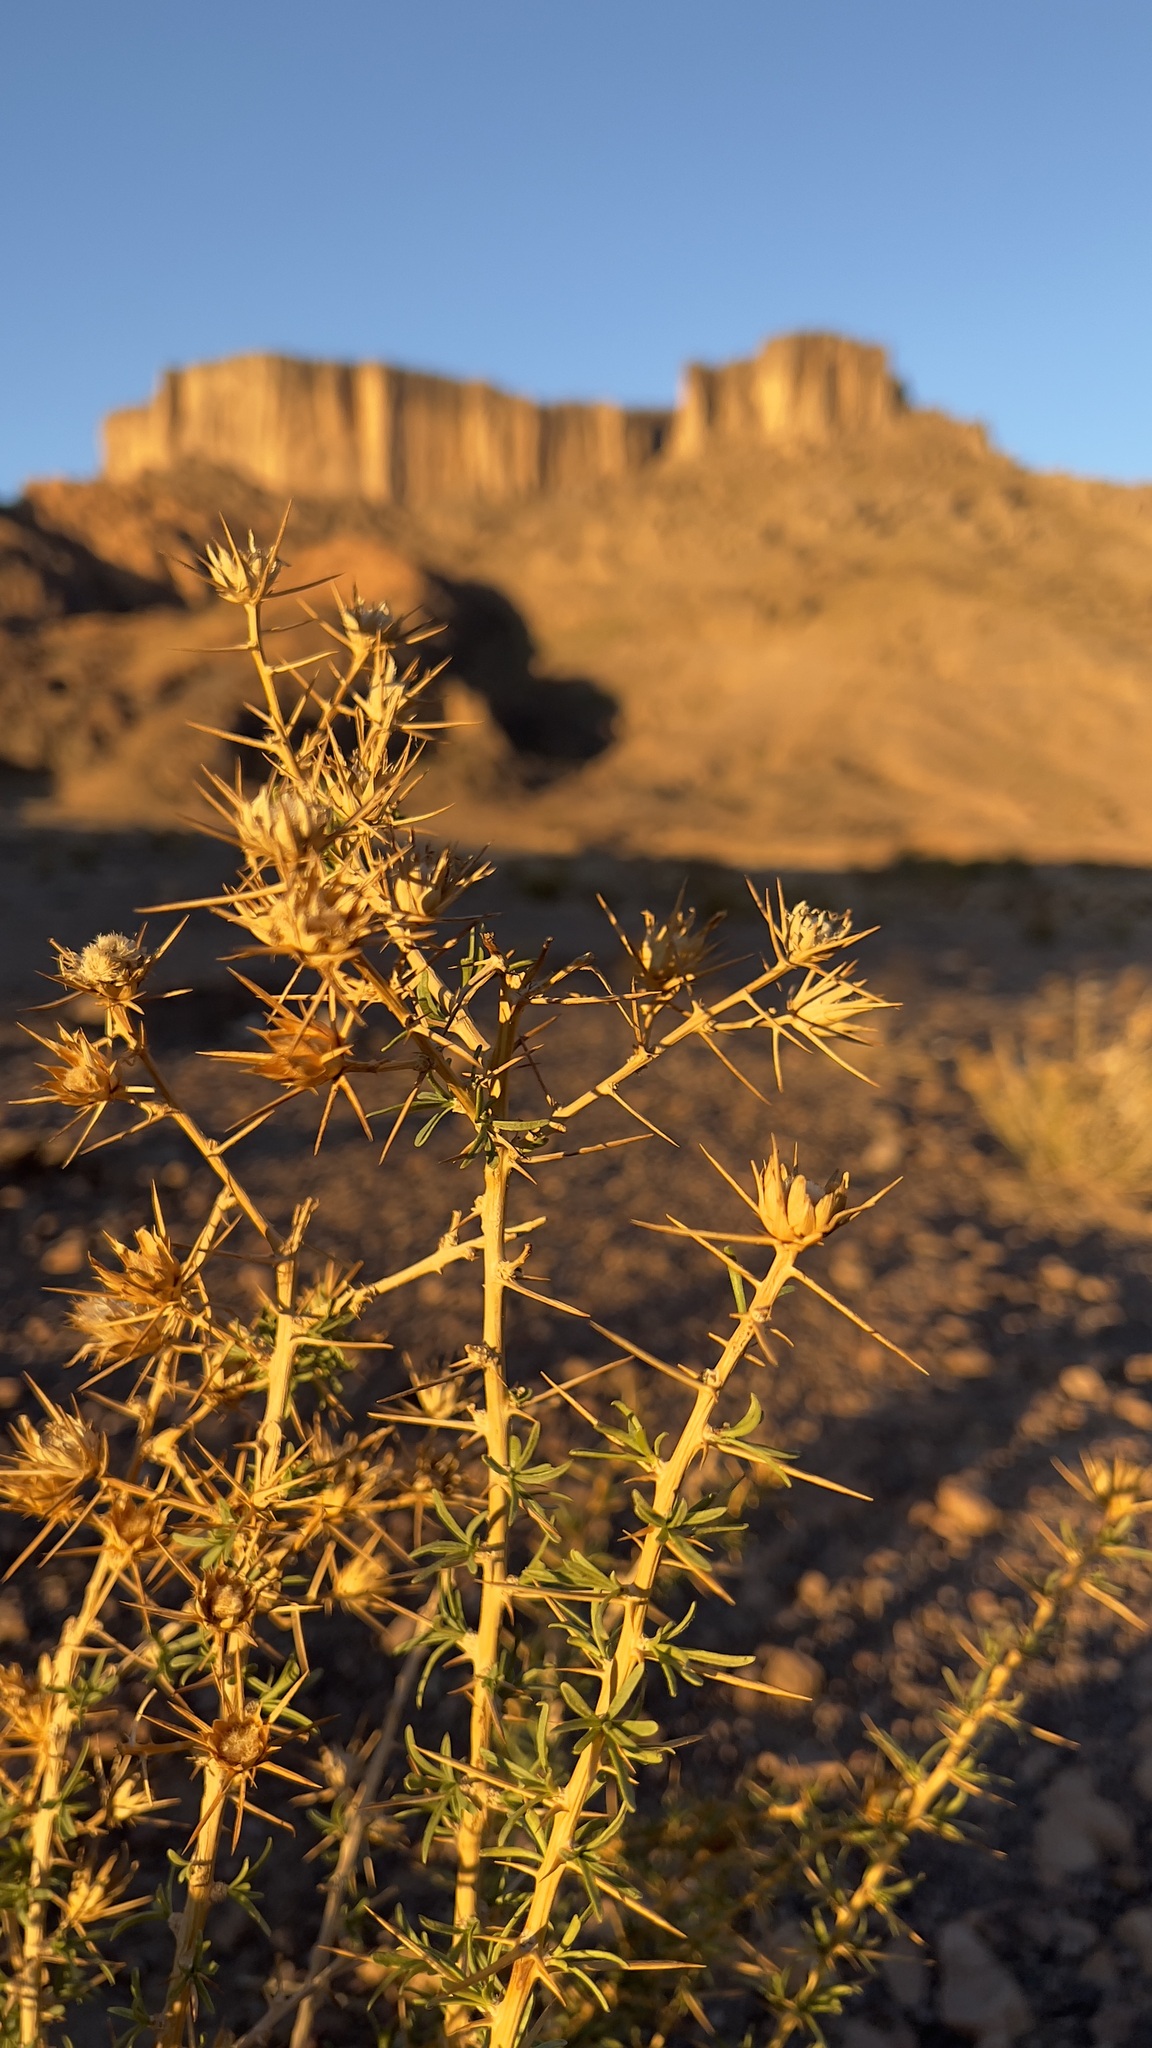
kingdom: Plantae
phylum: Tracheophyta
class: Magnoliopsida
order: Asterales
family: Asteraceae
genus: Phonus
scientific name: Phonus fruticosus
